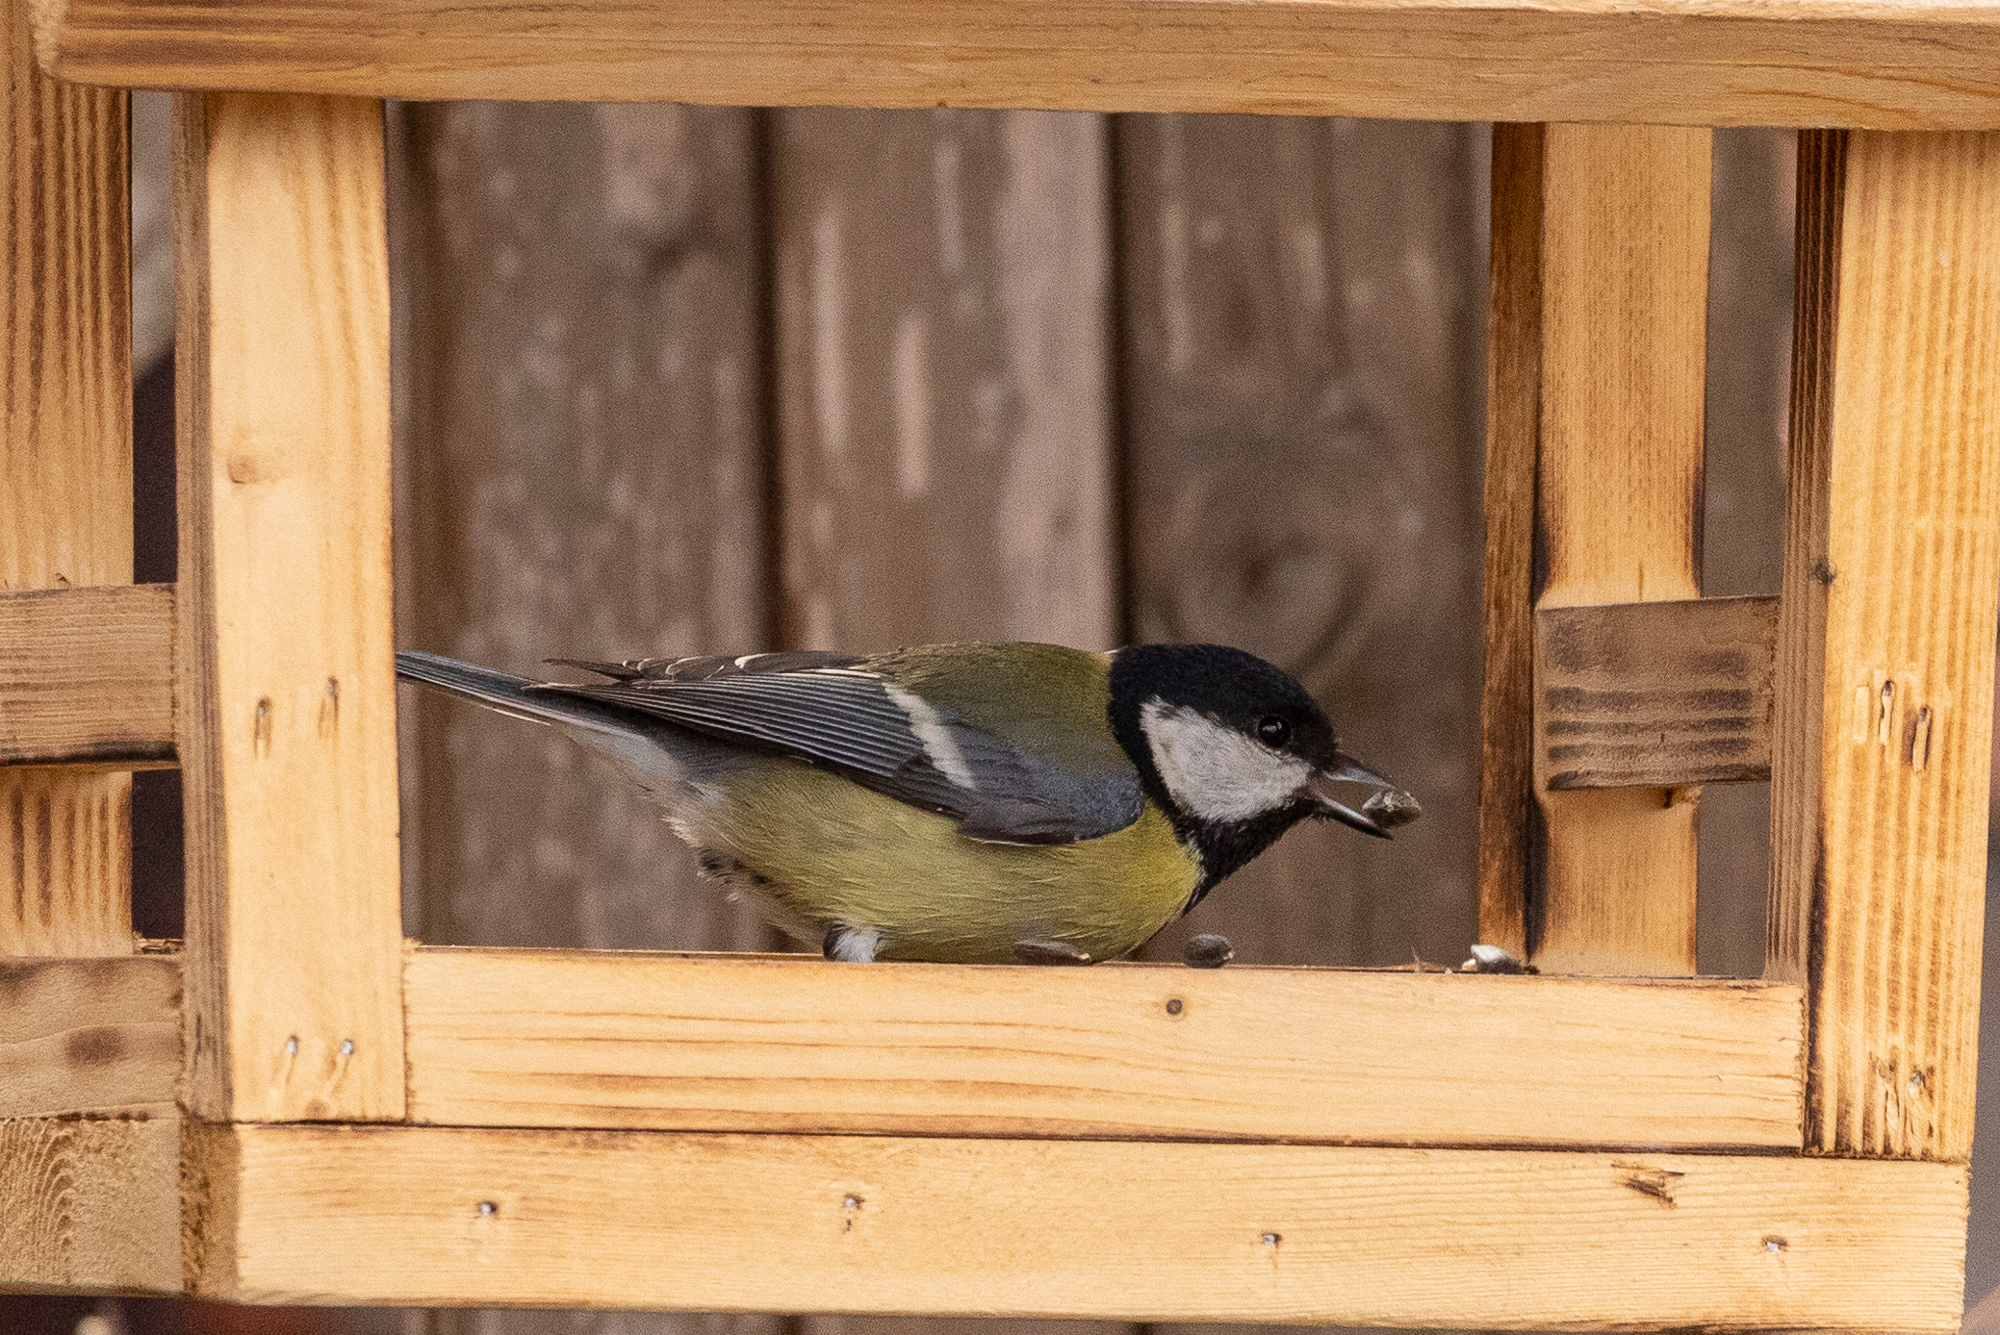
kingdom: Animalia
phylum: Chordata
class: Aves
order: Passeriformes
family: Paridae
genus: Parus
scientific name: Parus major
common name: Great tit
